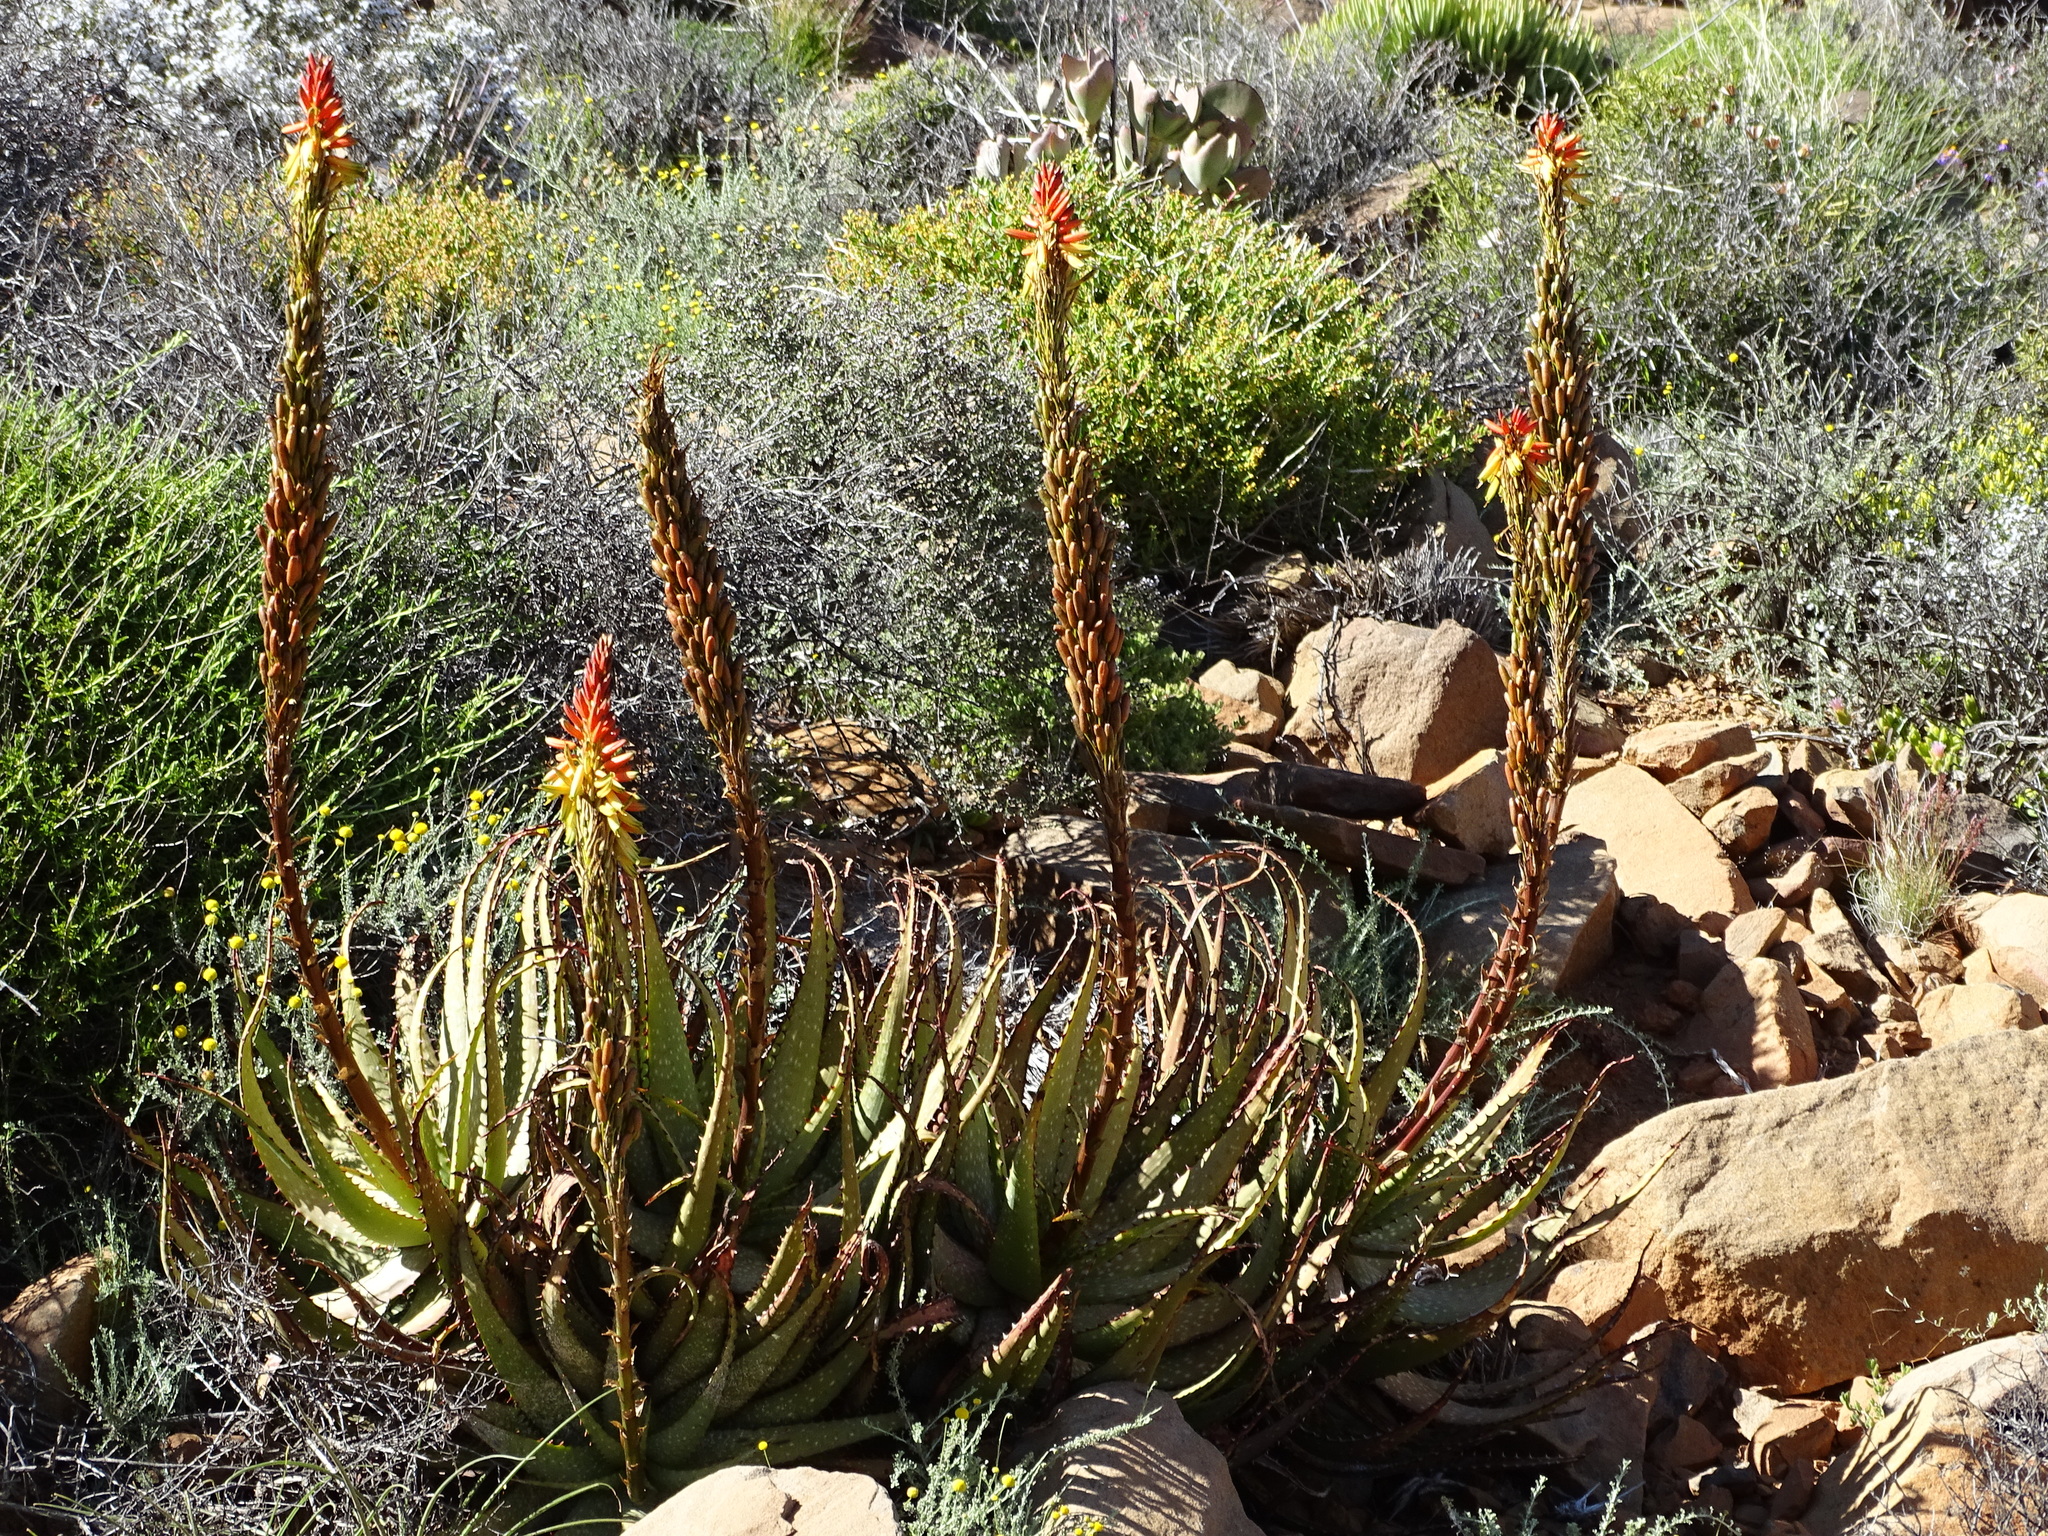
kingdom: Plantae
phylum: Tracheophyta
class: Liliopsida
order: Asparagales
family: Asphodelaceae
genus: Aloe
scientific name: Aloe microstigma
